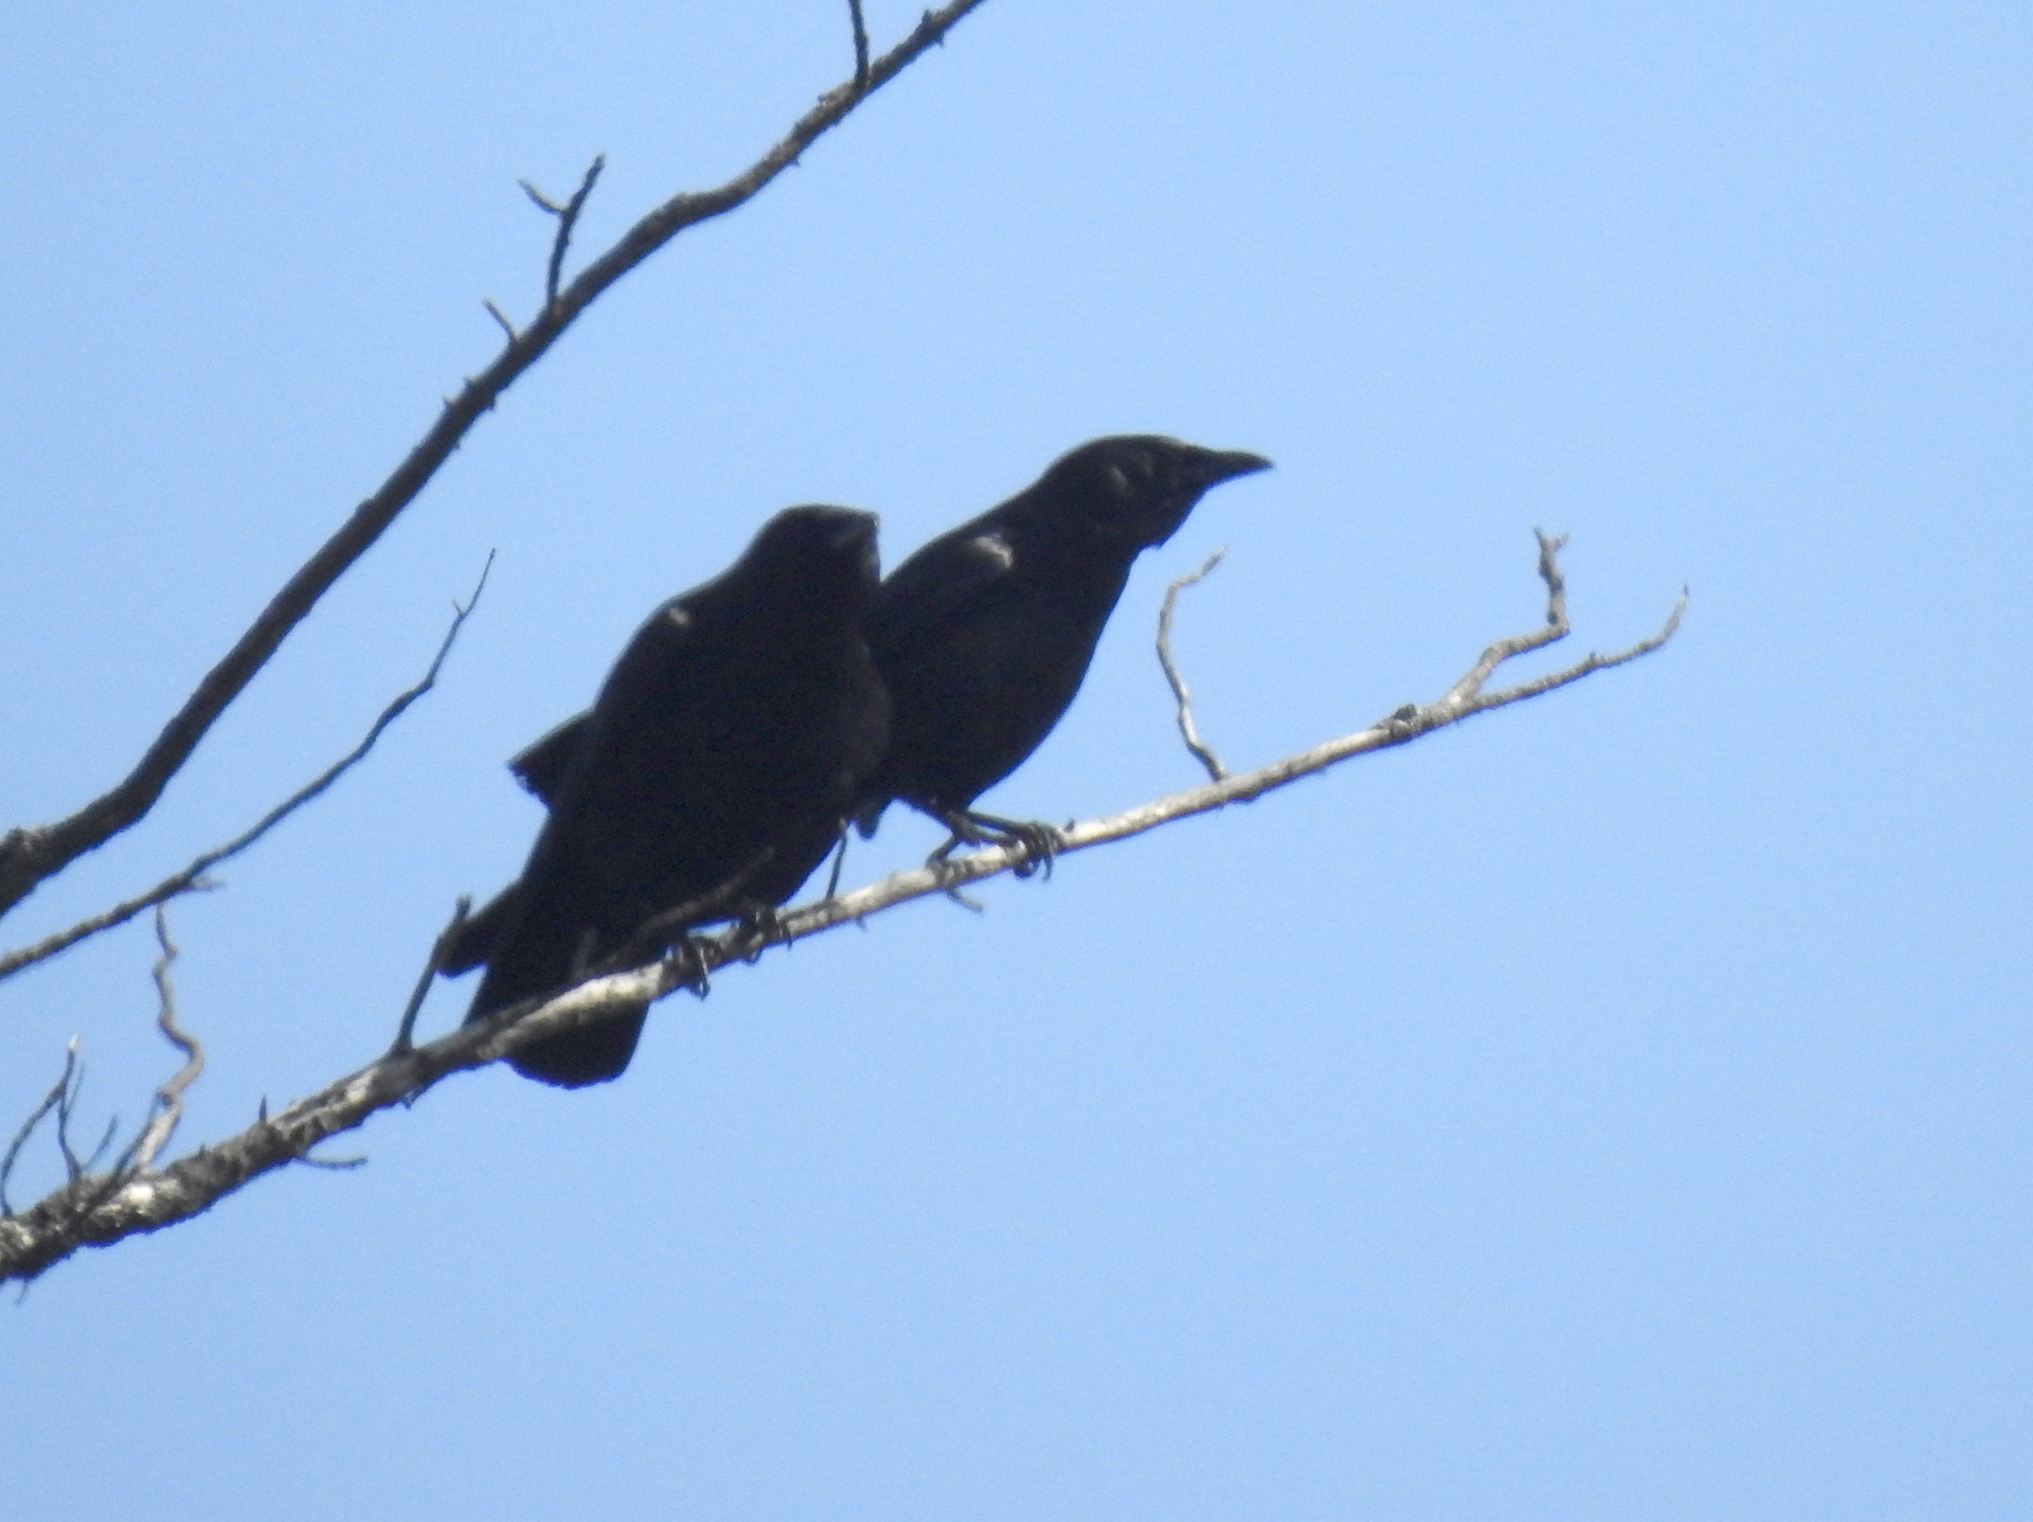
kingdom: Animalia
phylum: Chordata
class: Aves
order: Passeriformes
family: Corvidae
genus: Corvus
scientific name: Corvus brachyrhynchos
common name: American crow
